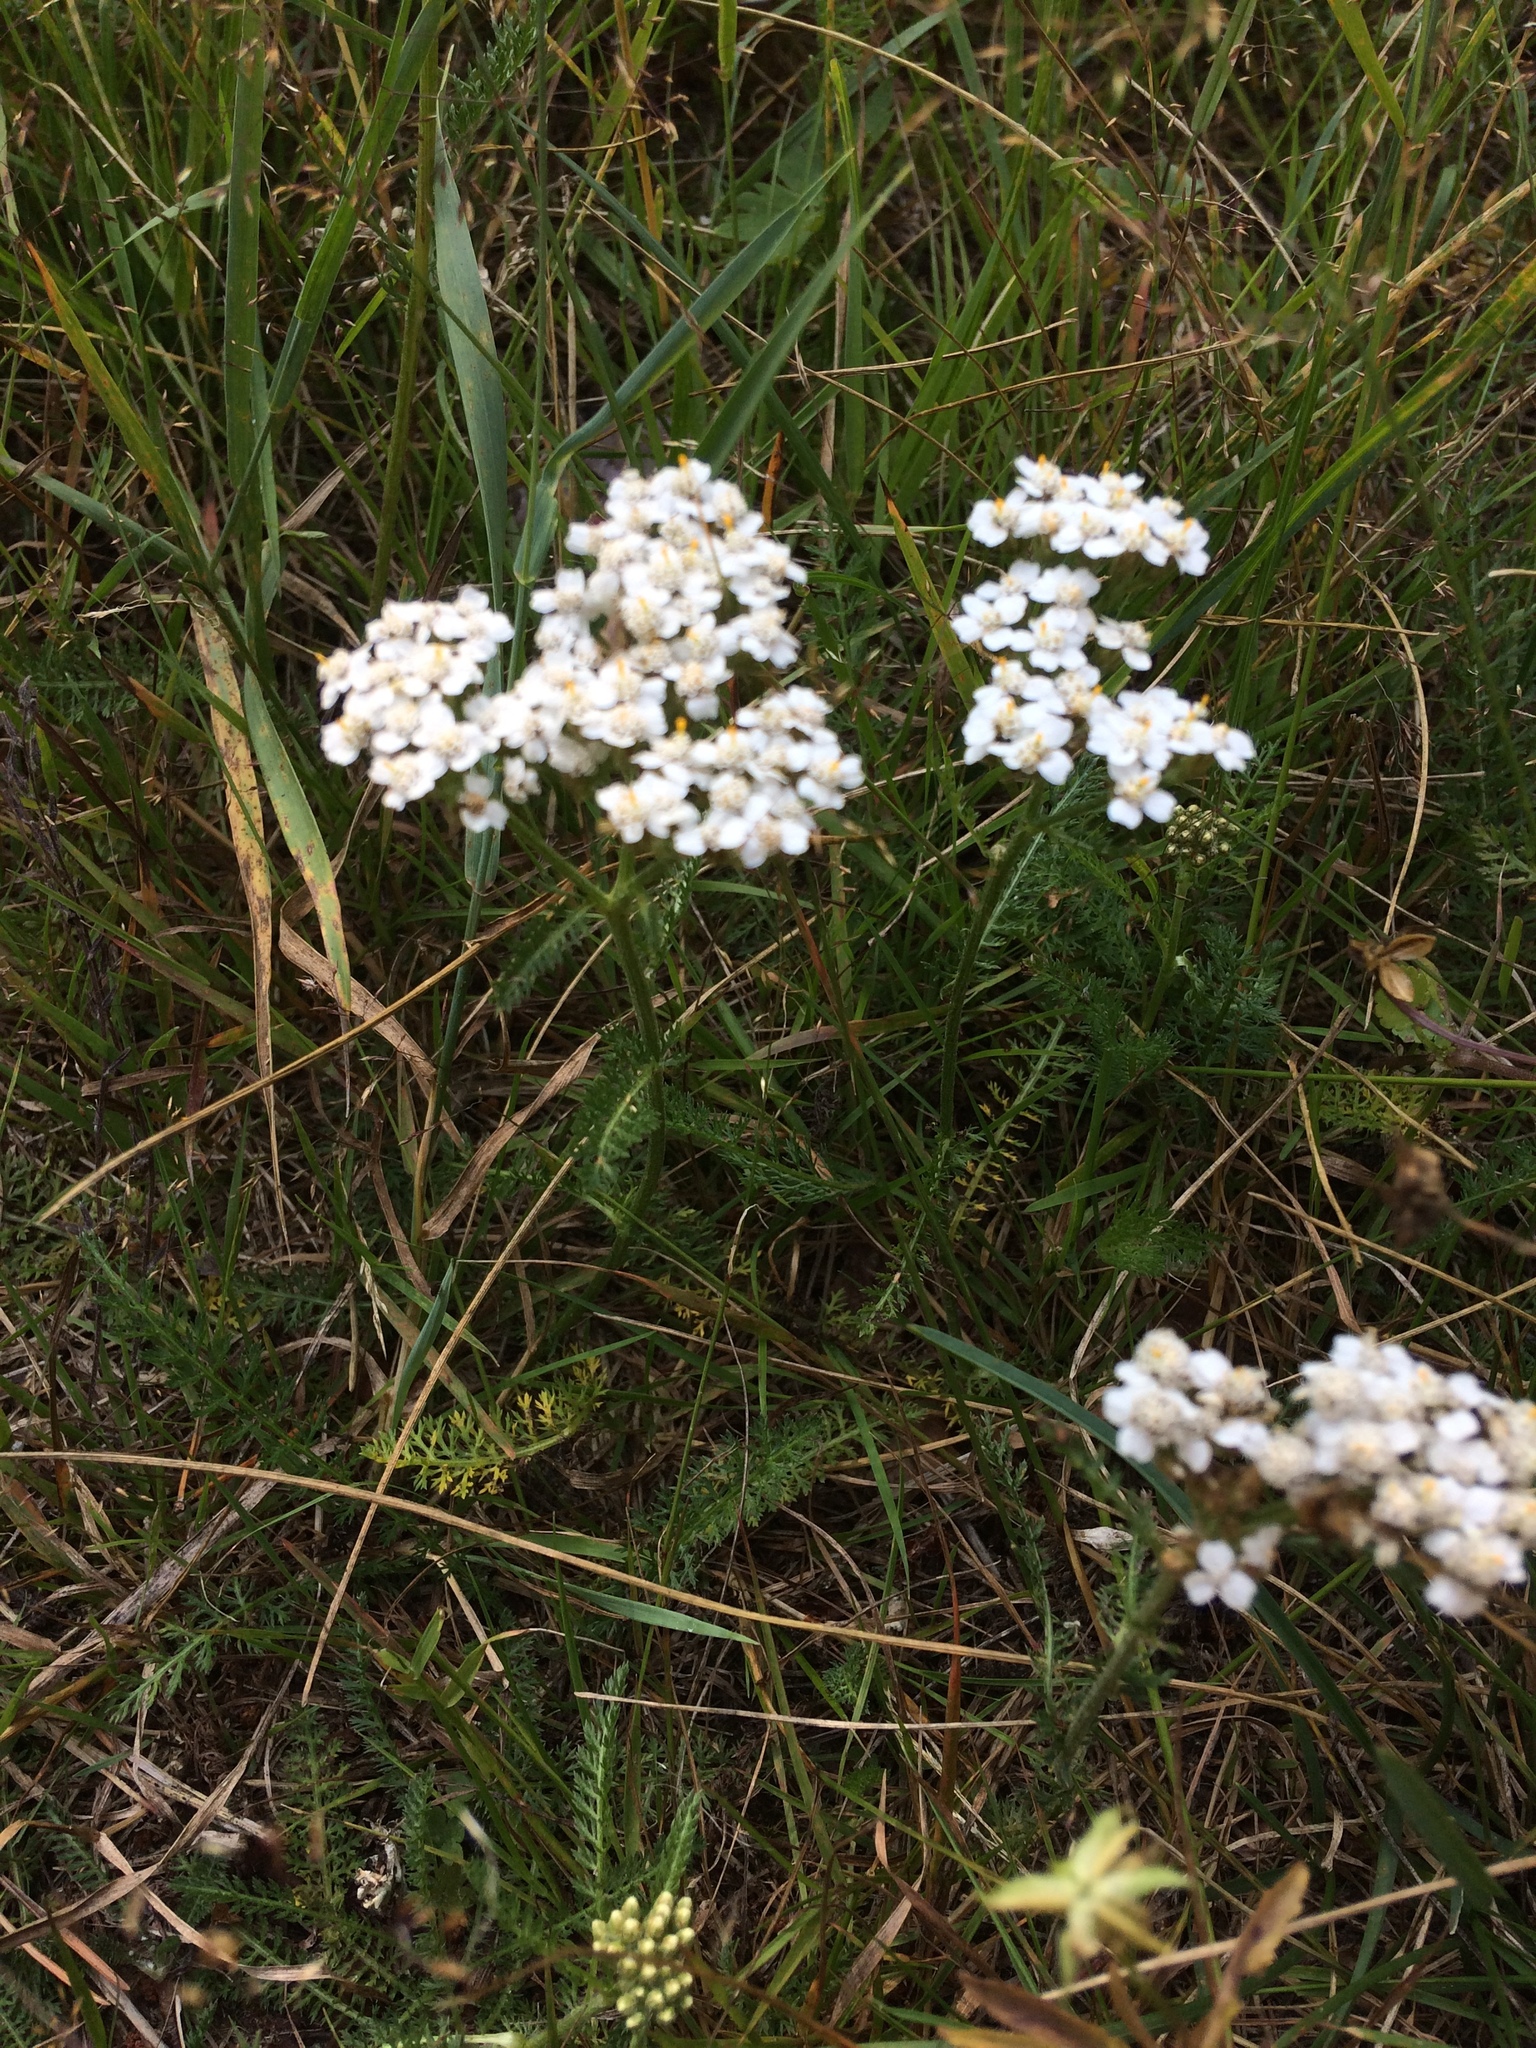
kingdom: Plantae
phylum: Tracheophyta
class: Magnoliopsida
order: Asterales
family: Asteraceae
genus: Achillea
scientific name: Achillea millefolium
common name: Yarrow
